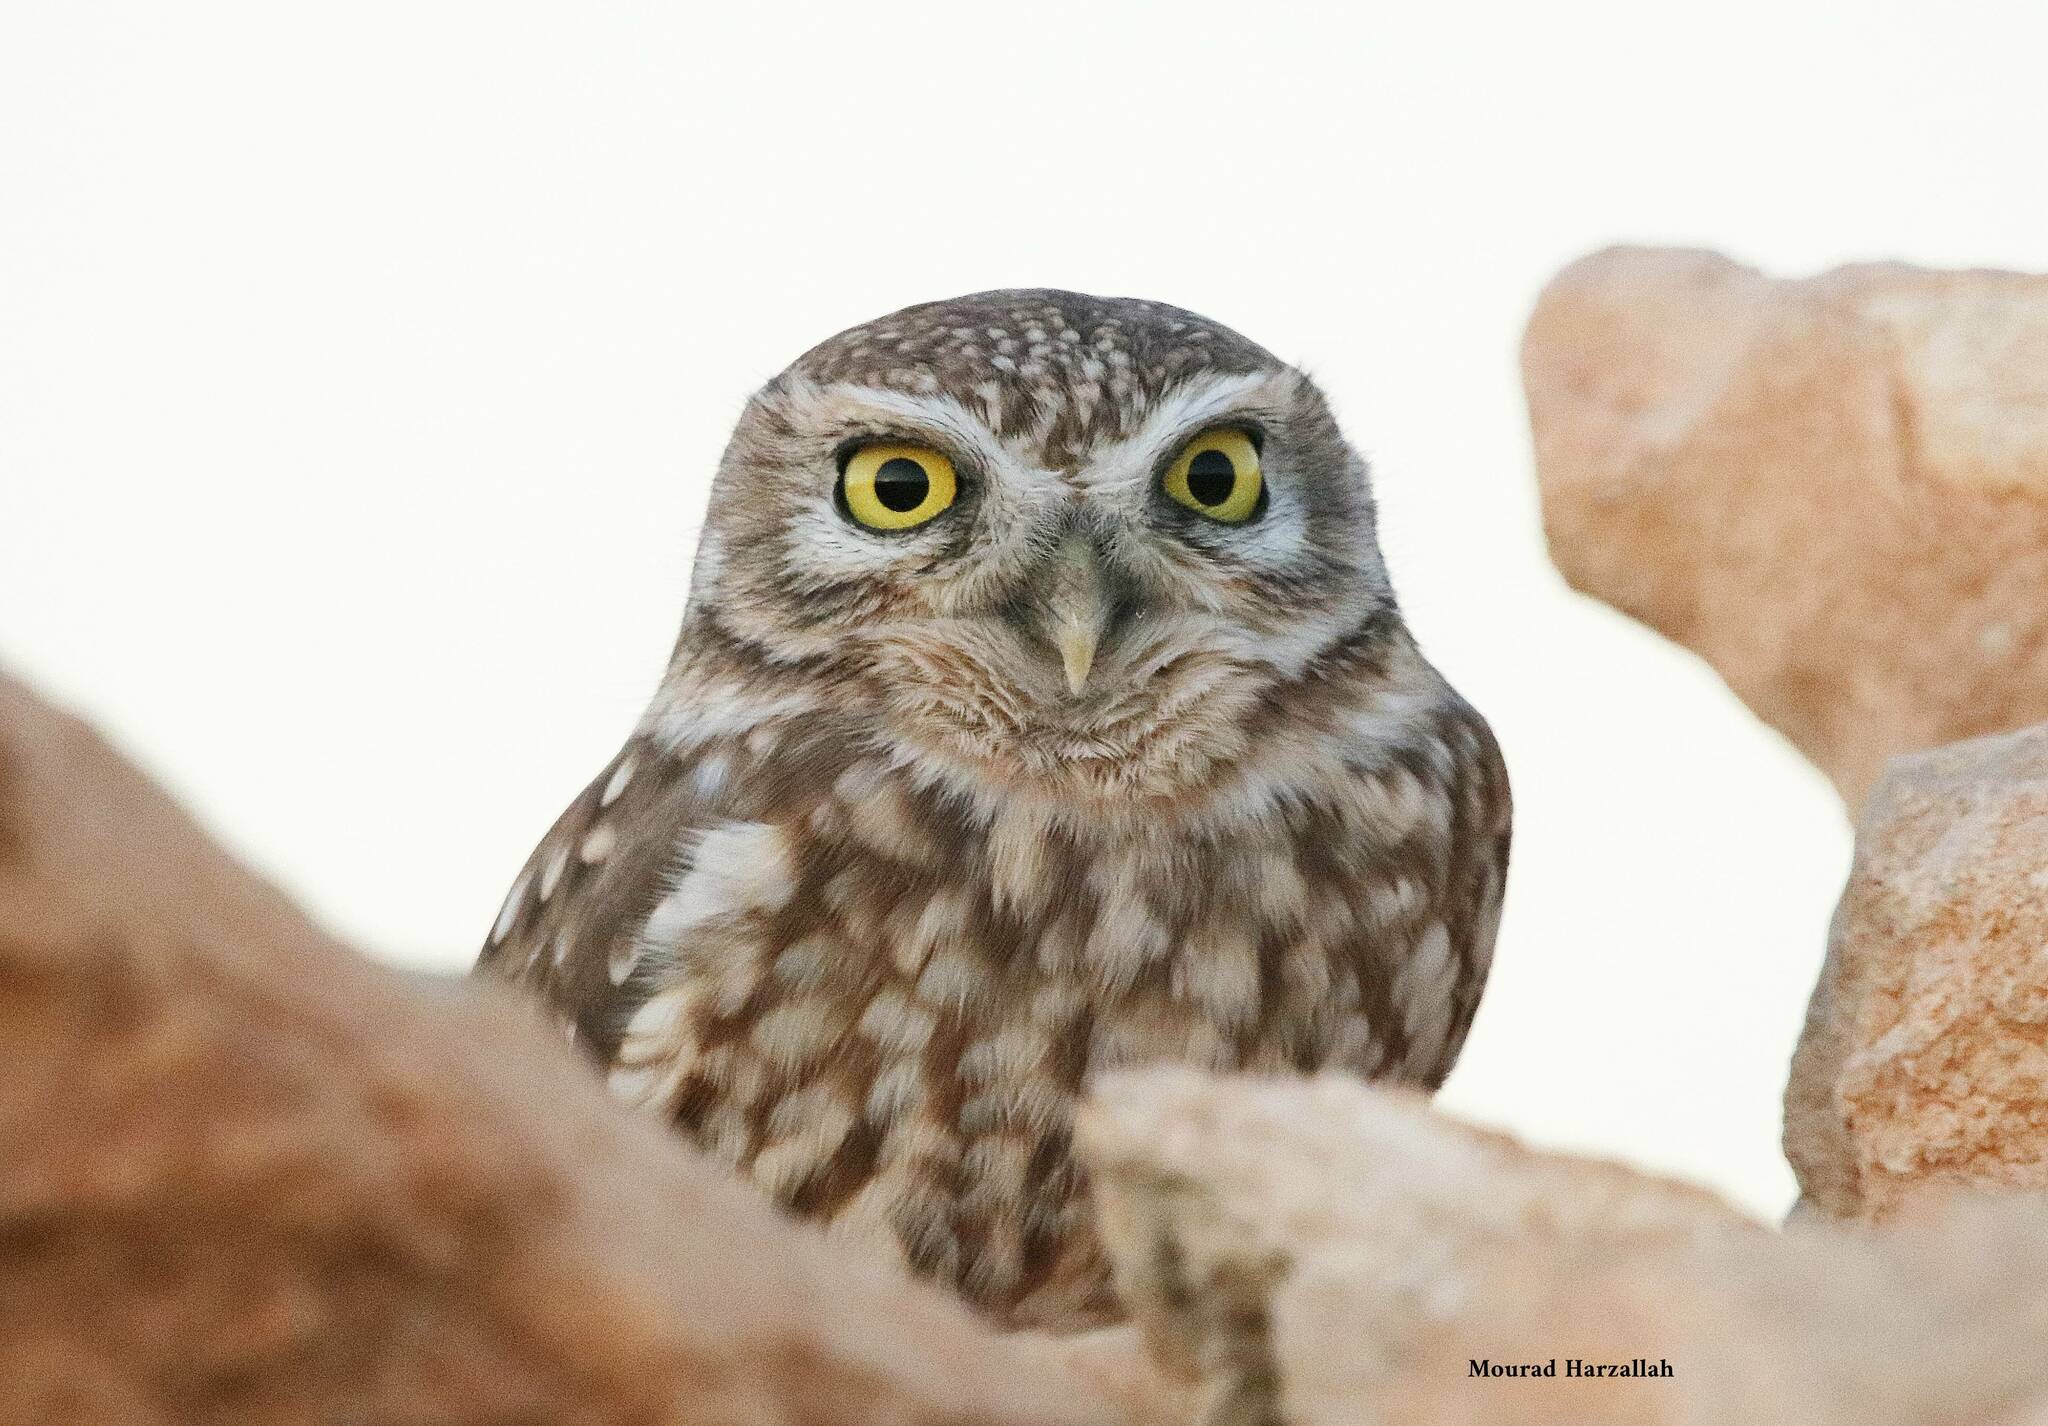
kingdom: Animalia
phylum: Chordata
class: Aves
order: Strigiformes
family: Strigidae
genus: Athene
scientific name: Athene noctua
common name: Little owl
